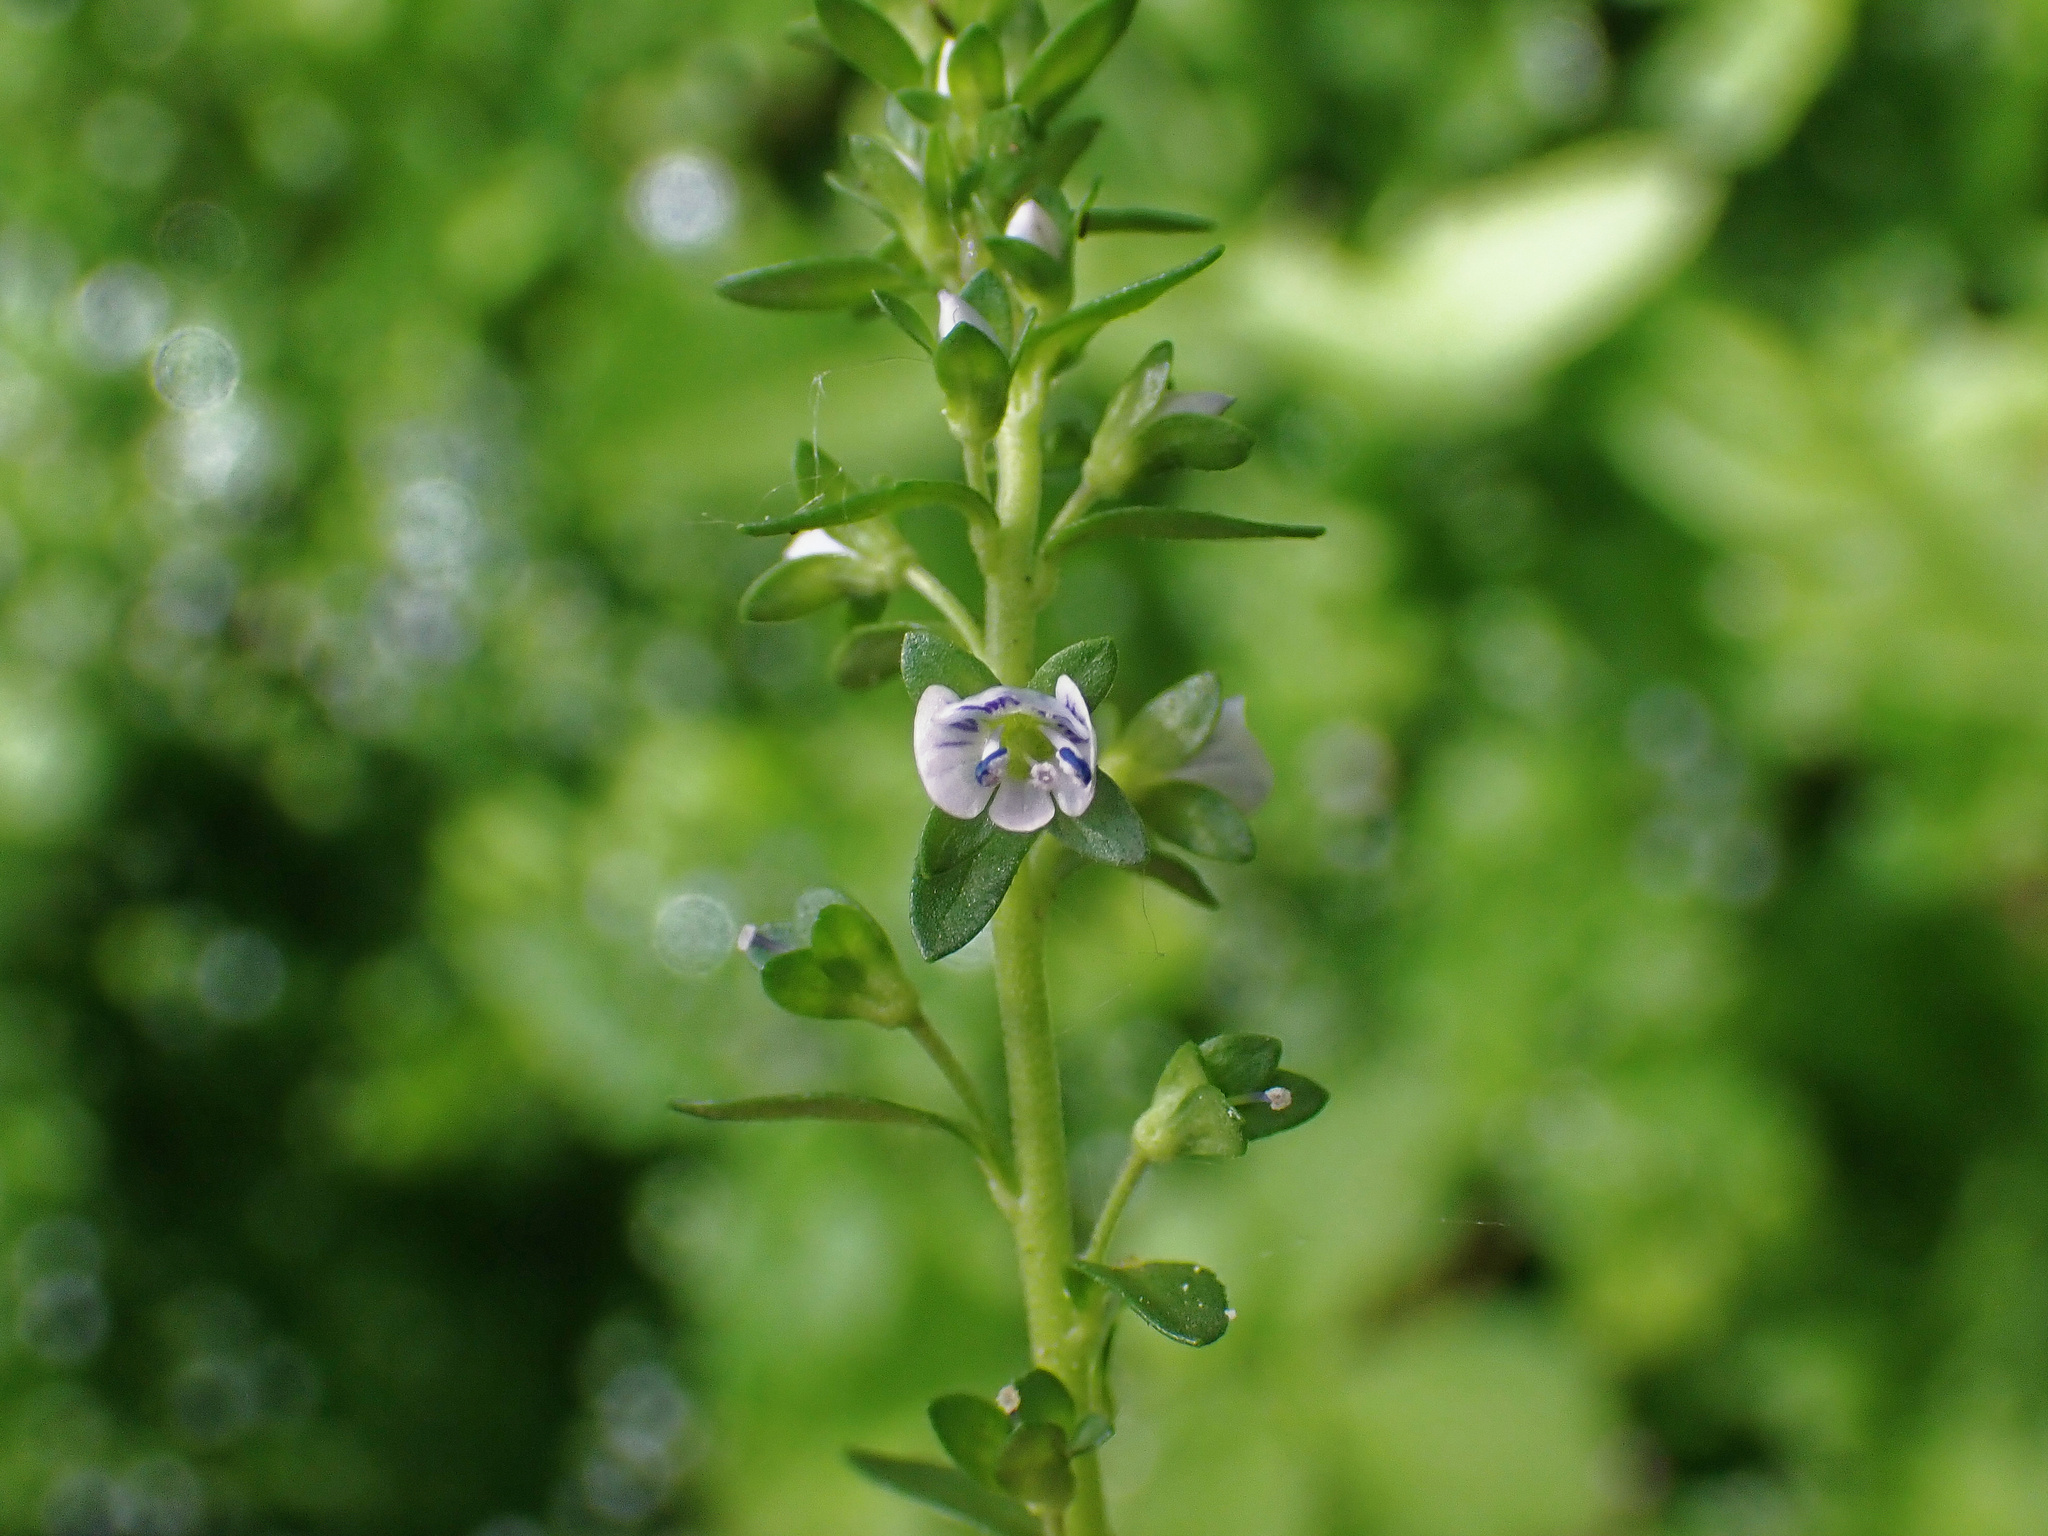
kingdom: Plantae
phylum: Tracheophyta
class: Magnoliopsida
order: Lamiales
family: Plantaginaceae
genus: Veronica
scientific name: Veronica serpyllifolia
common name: Thyme-leaved speedwell
